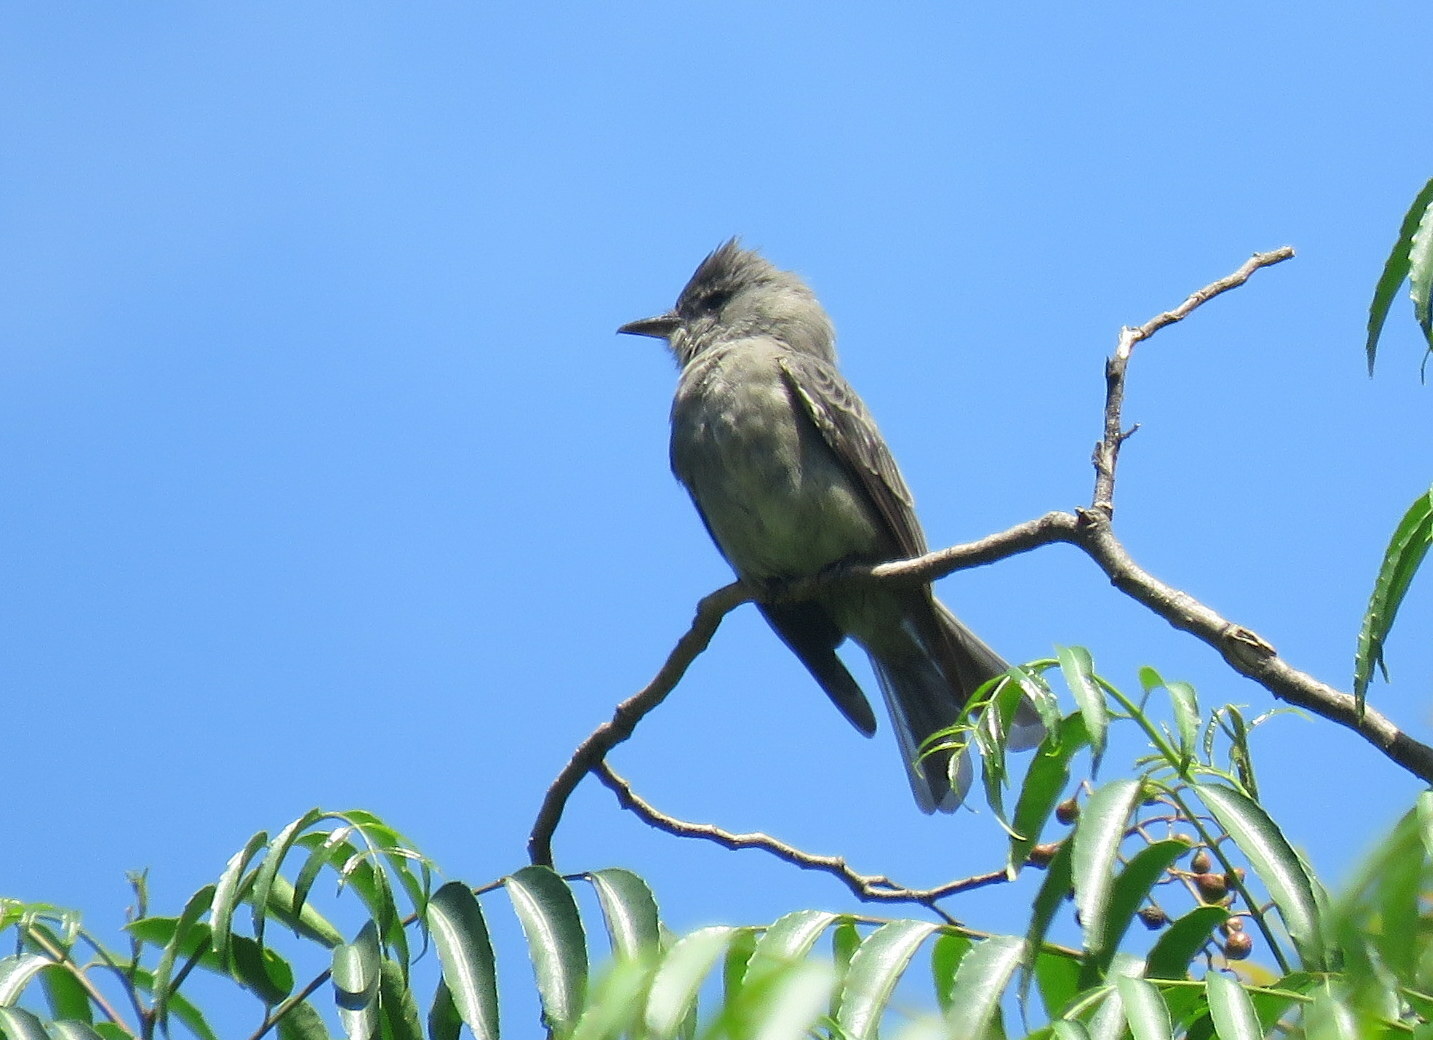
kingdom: Animalia
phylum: Chordata
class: Aves
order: Passeriformes
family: Tyrannidae
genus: Contopus
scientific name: Contopus fumigatus
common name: Smoke-colored pewee
